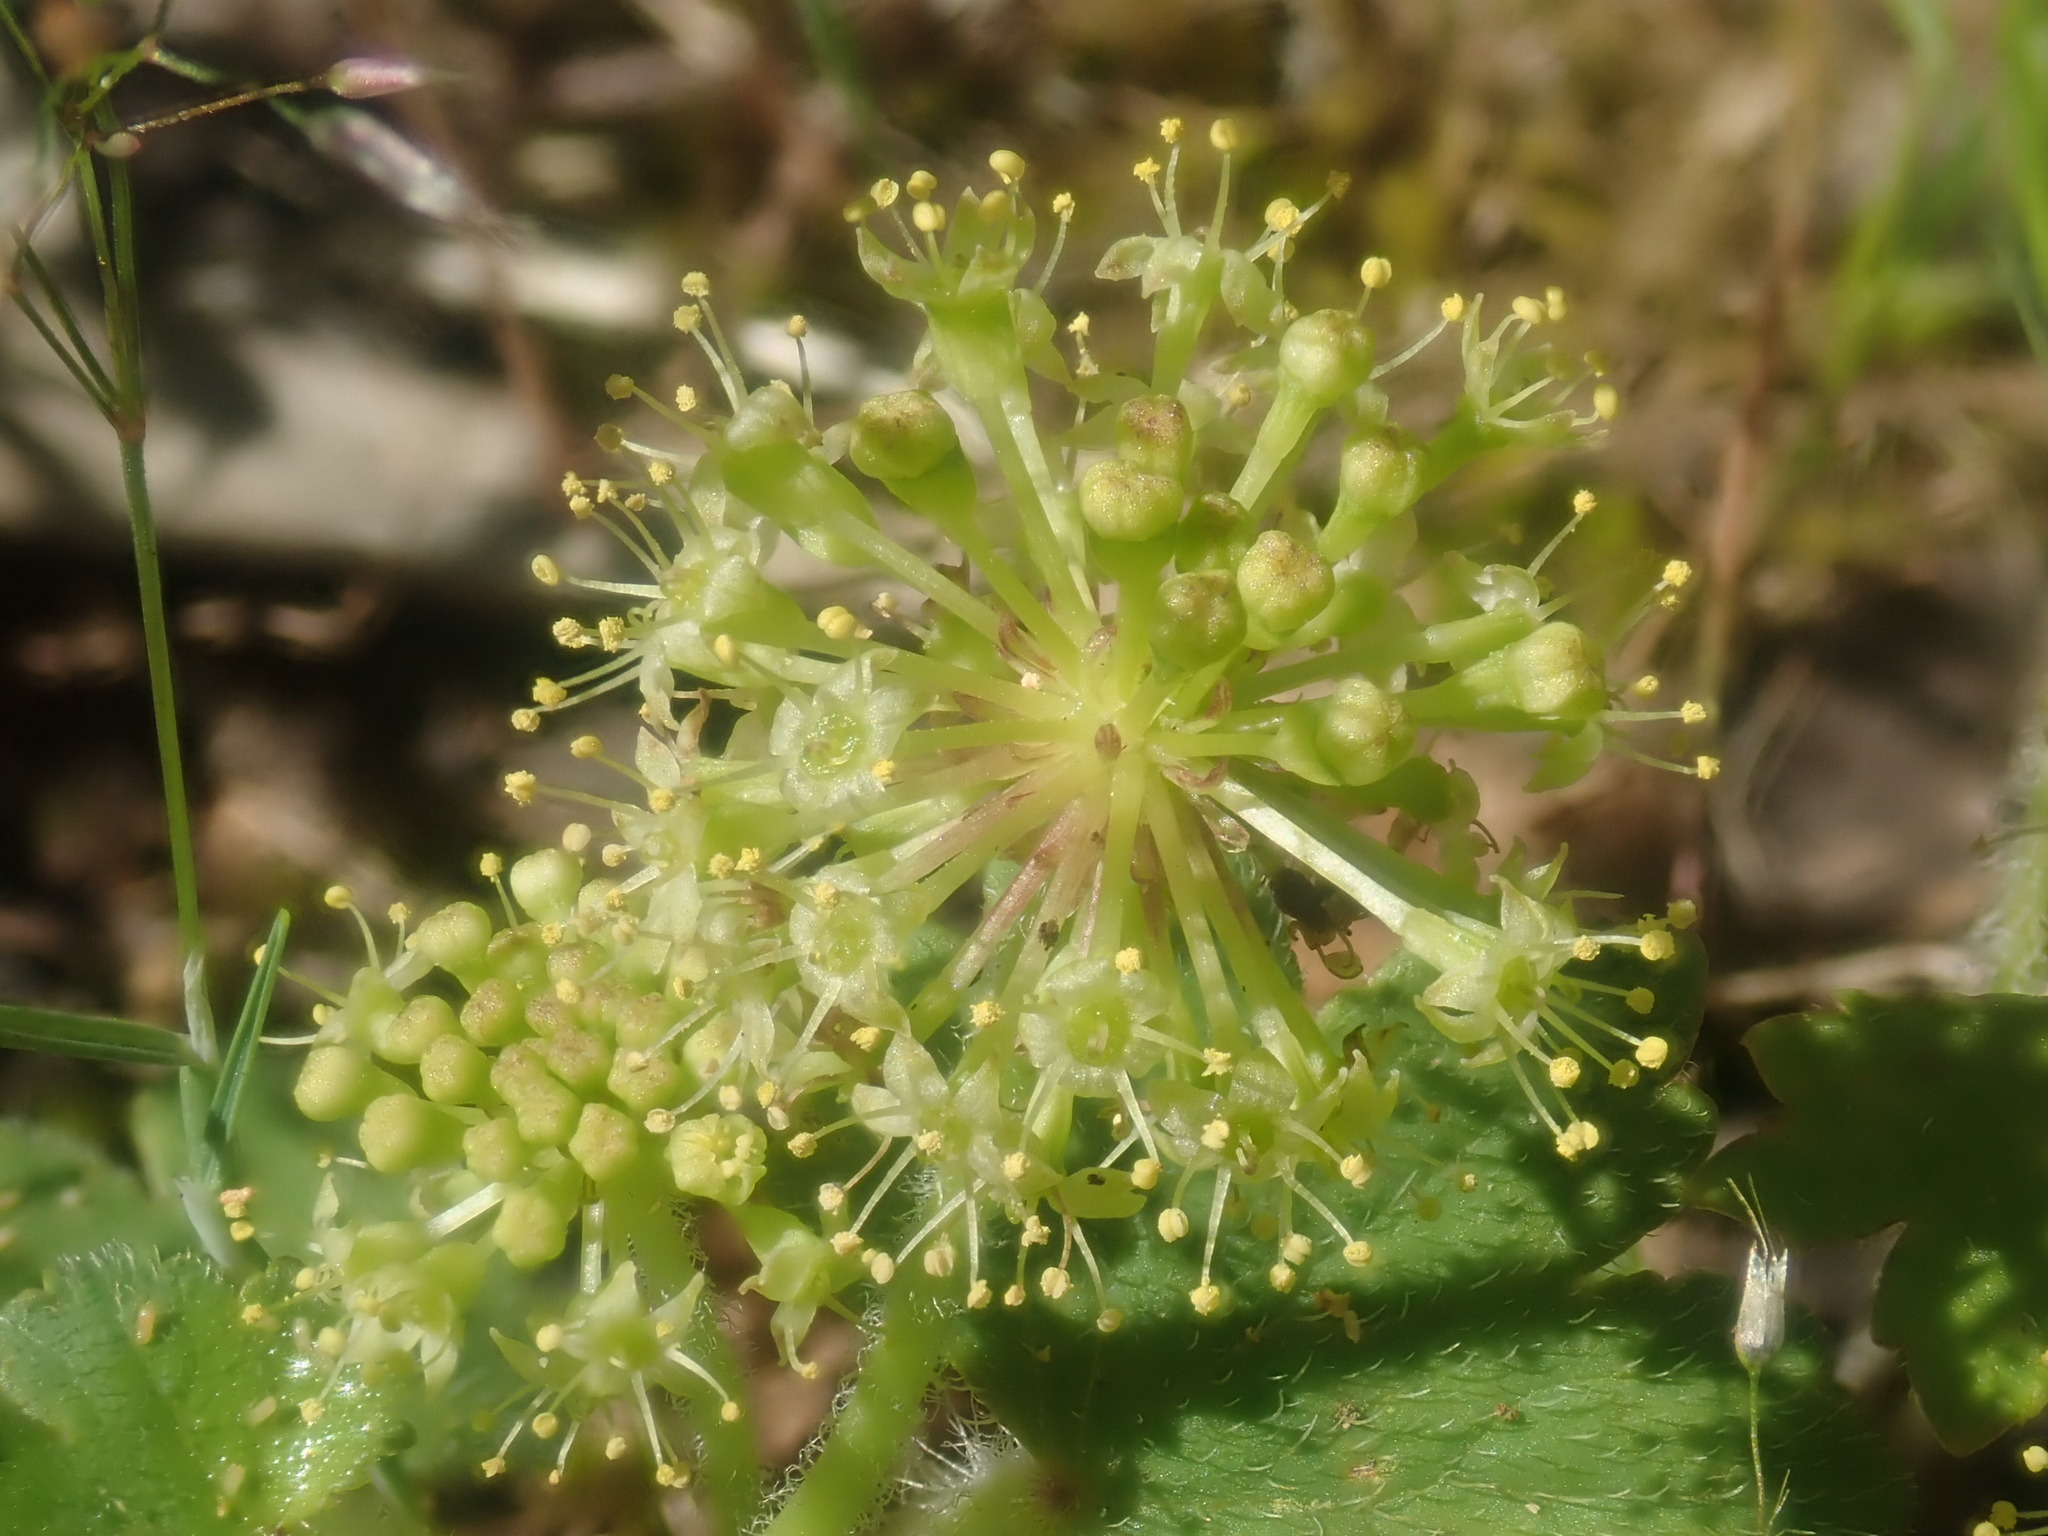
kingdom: Plantae
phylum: Tracheophyta
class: Magnoliopsida
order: Apiales
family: Araliaceae
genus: Hydrocotyle
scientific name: Hydrocotyle laxiflora
